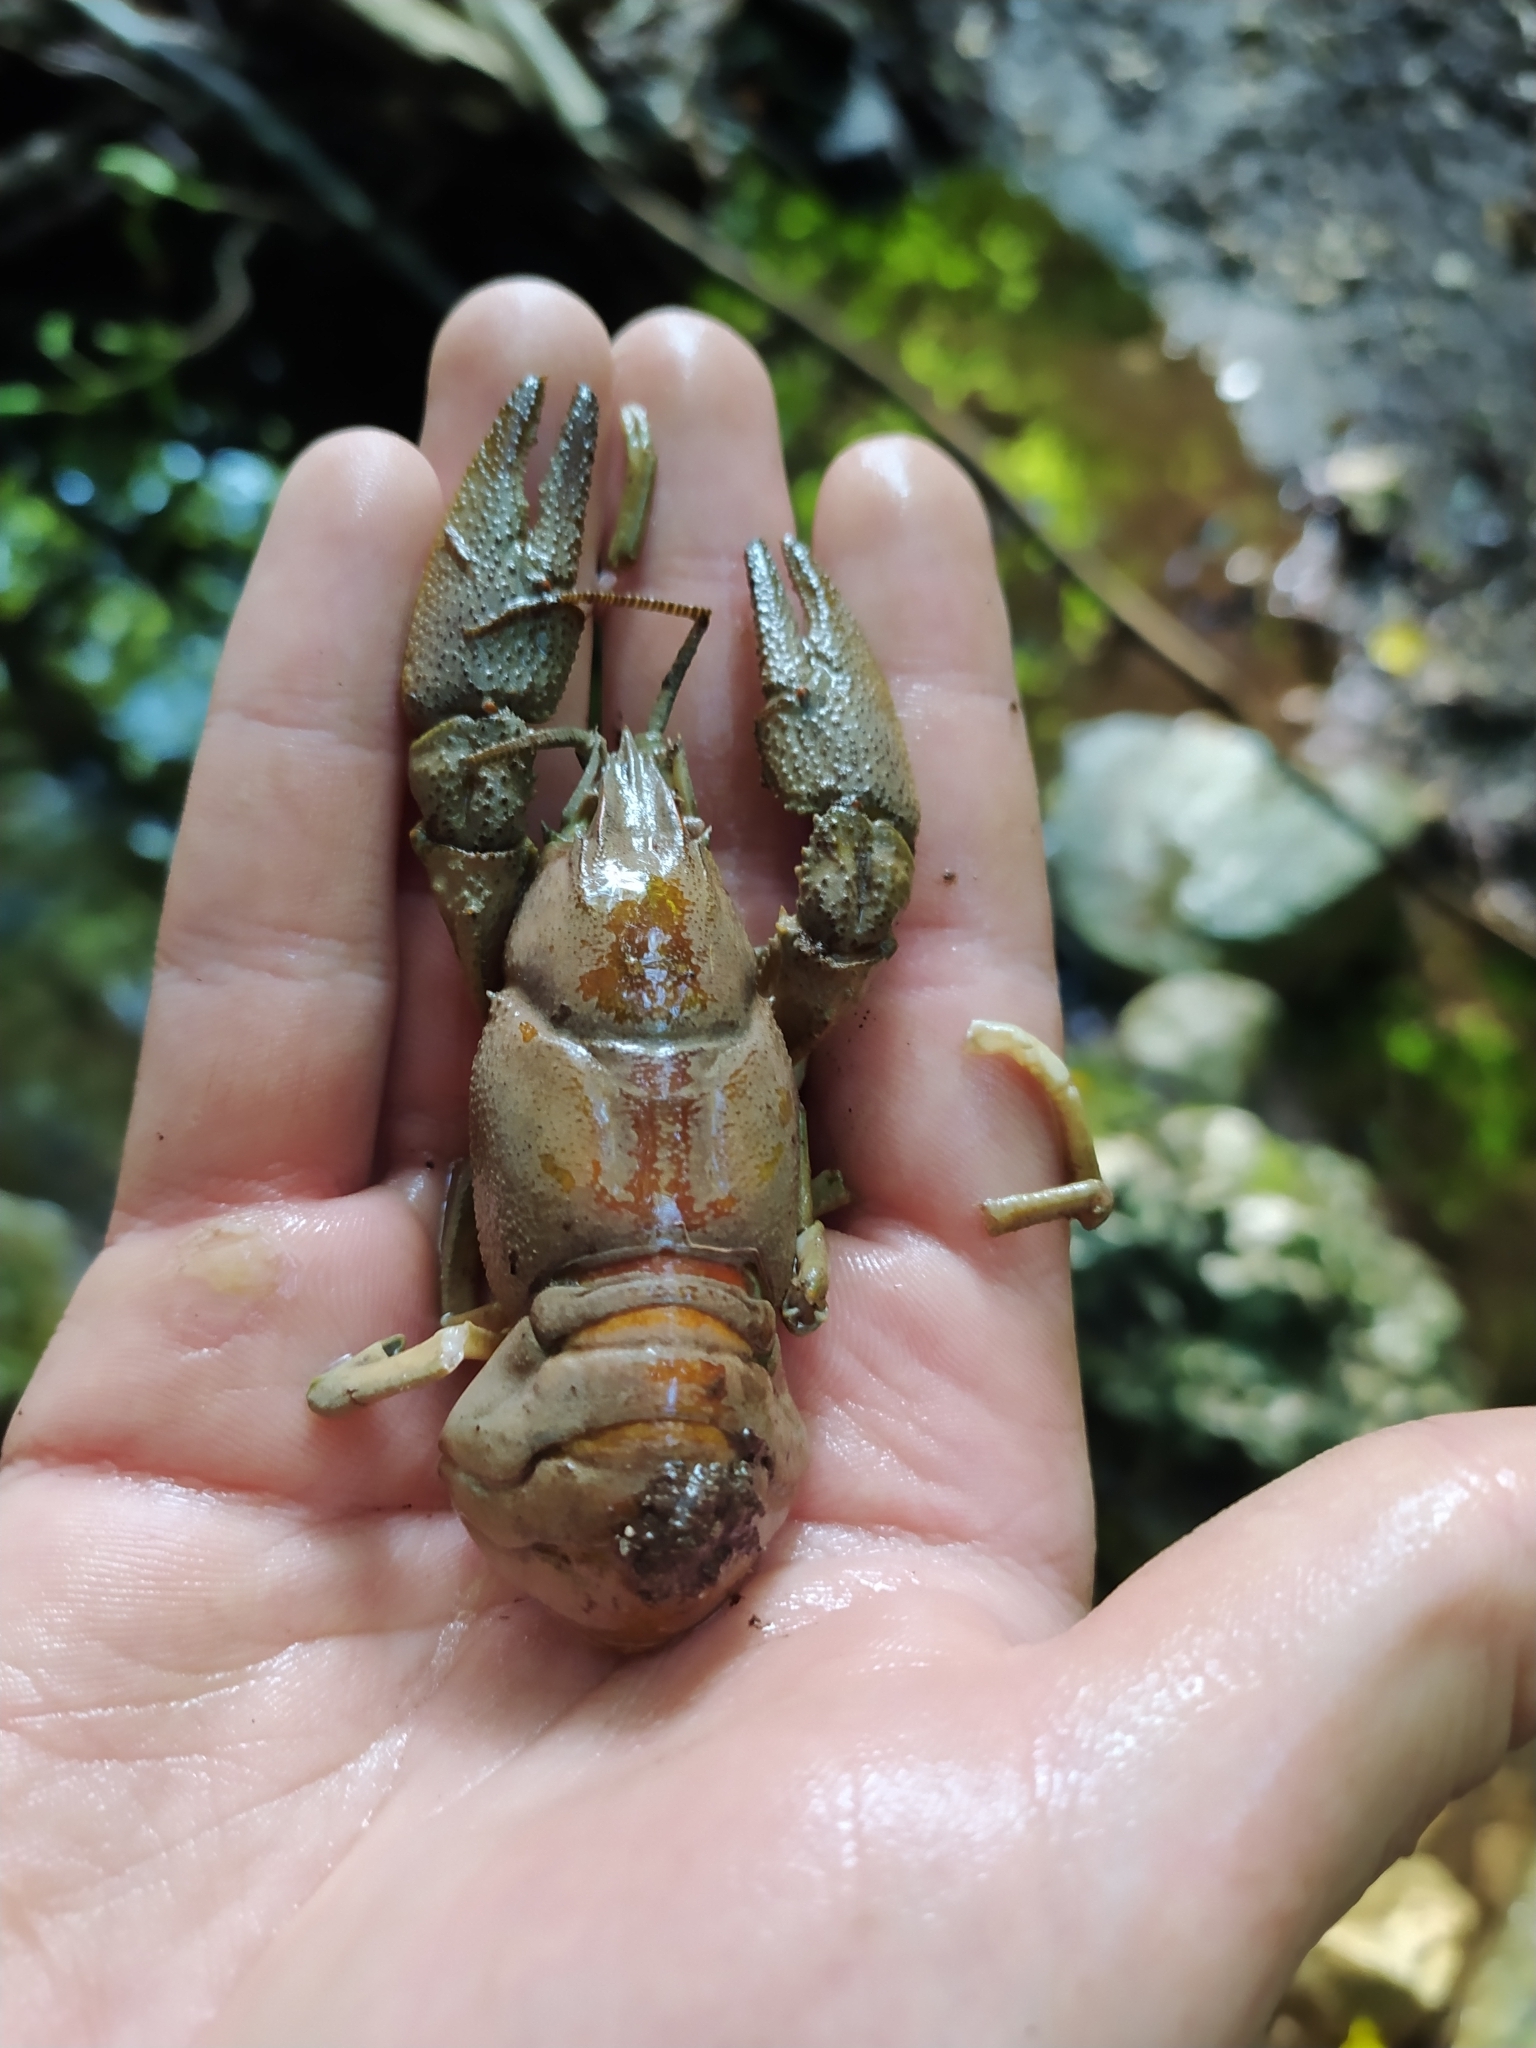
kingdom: Animalia
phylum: Arthropoda
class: Malacostraca
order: Decapoda
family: Astacidae
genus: Austropotamobius
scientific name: Austropotamobius pallipes
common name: White-clawed crayfish
